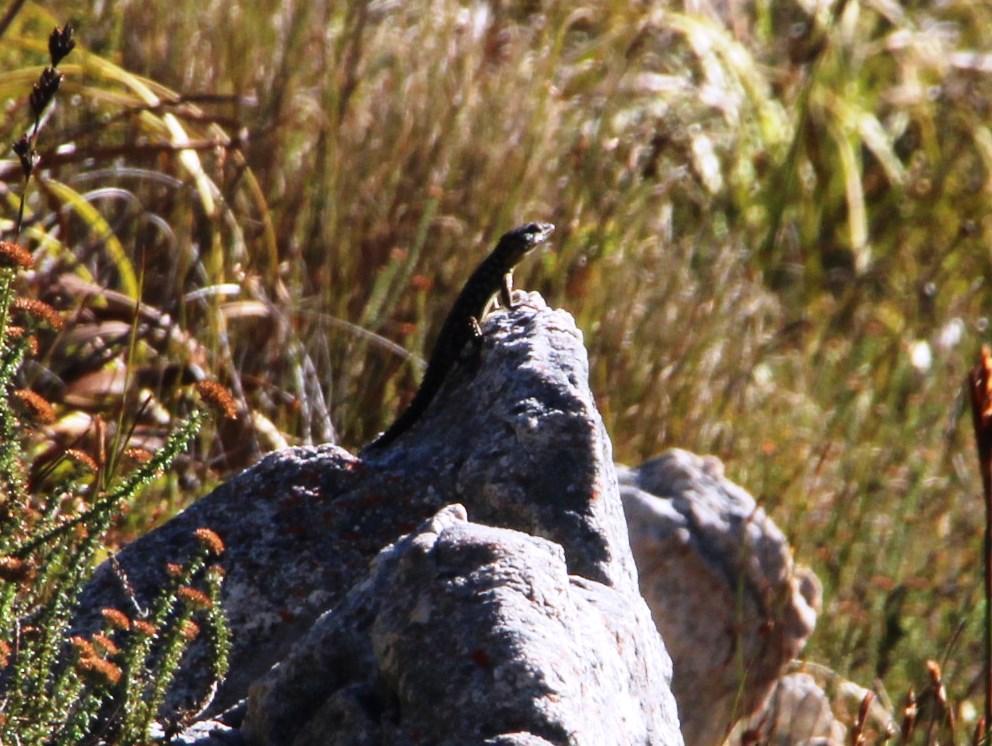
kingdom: Animalia
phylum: Chordata
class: Squamata
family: Cordylidae
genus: Pseudocordylus
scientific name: Pseudocordylus microlepidotus
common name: Cape crag lizard
